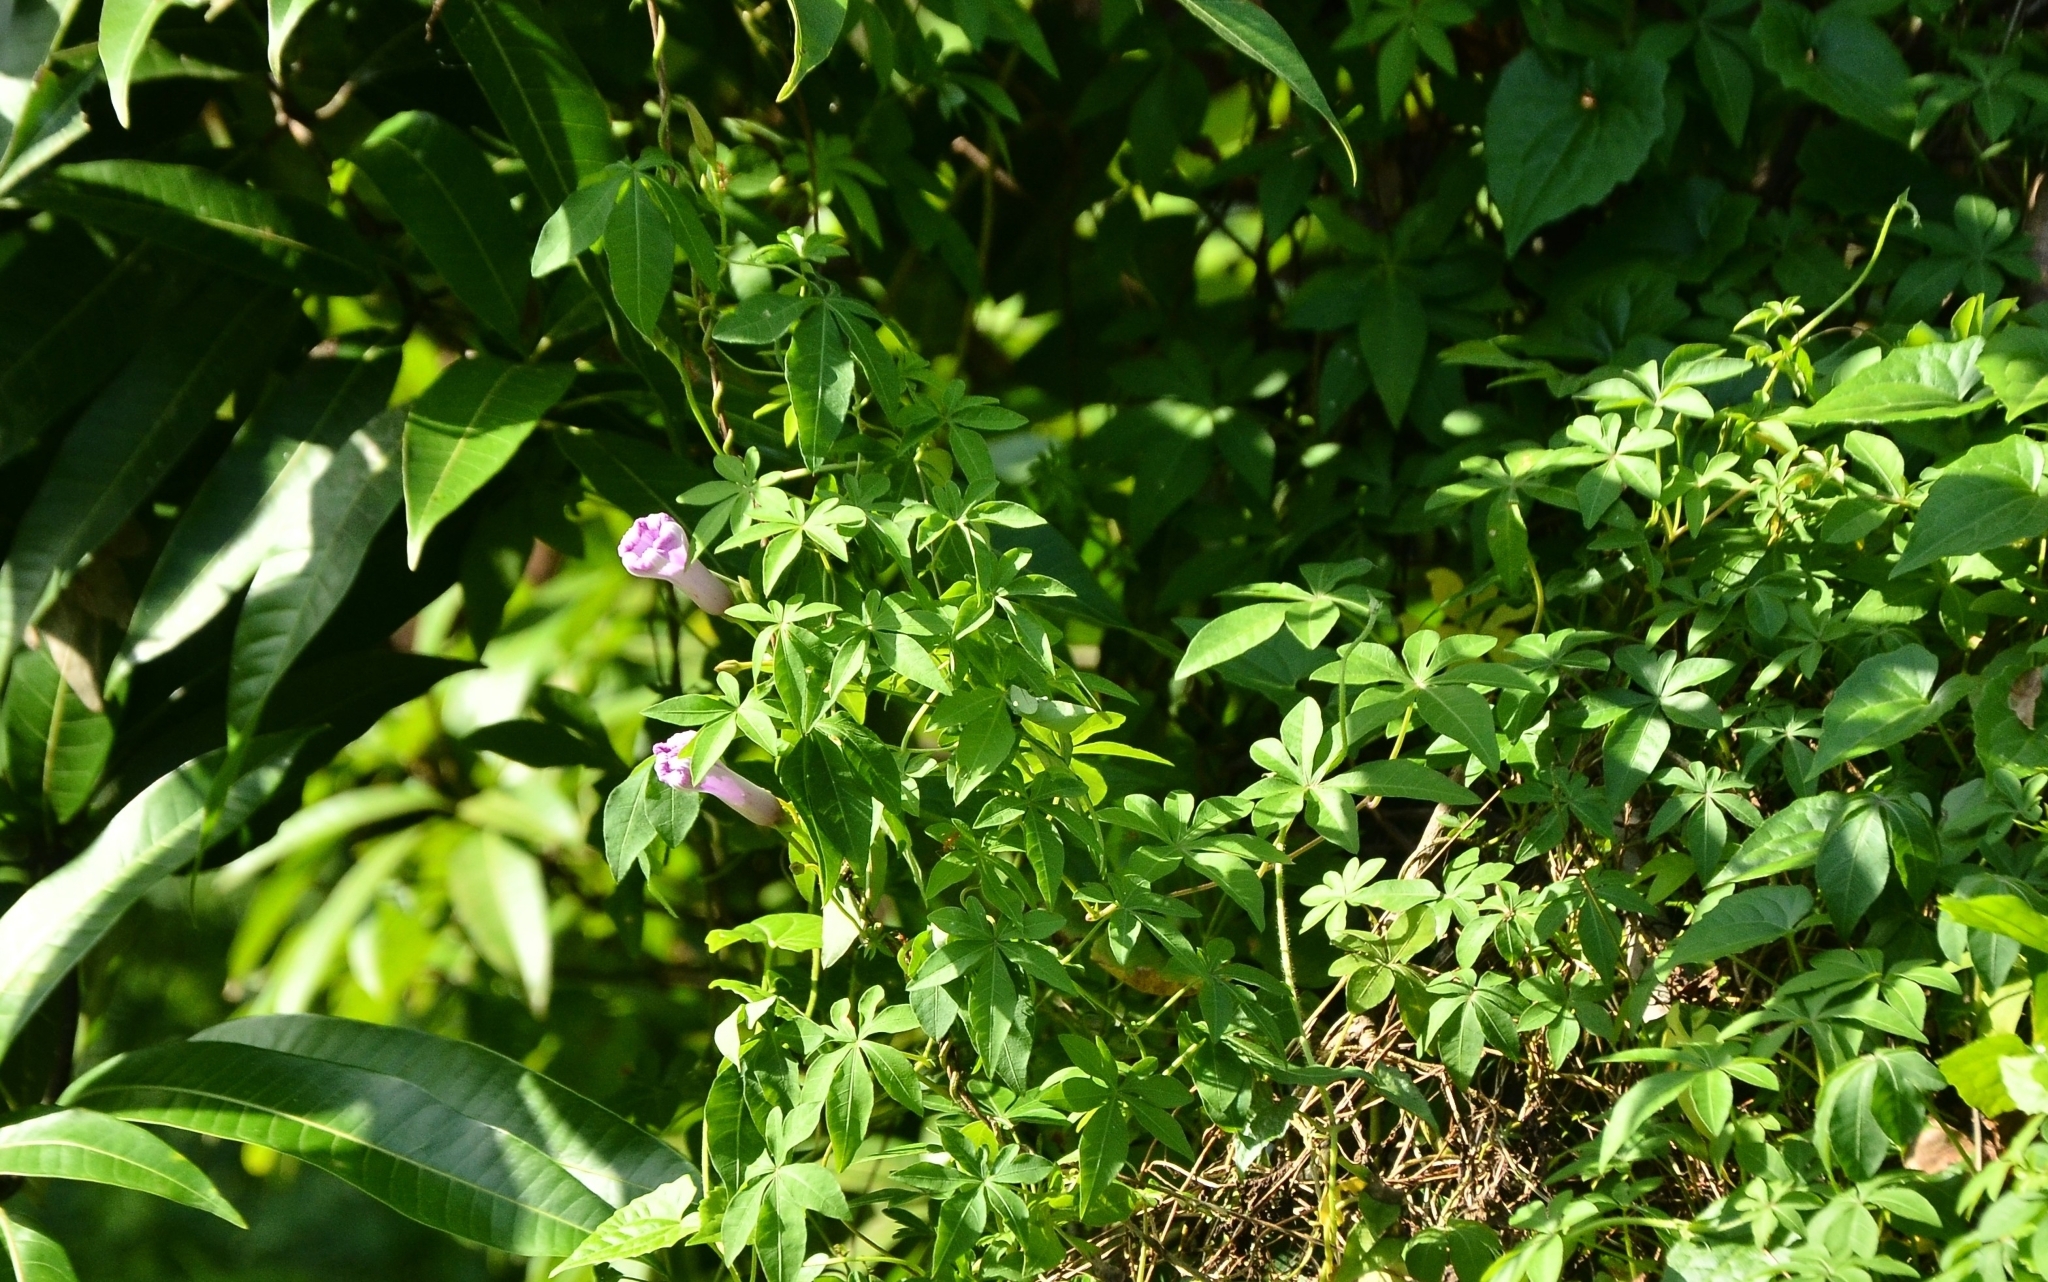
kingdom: Plantae
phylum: Tracheophyta
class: Magnoliopsida
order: Solanales
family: Convolvulaceae
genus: Ipomoea
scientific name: Ipomoea cairica
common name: Mile a minute vine
